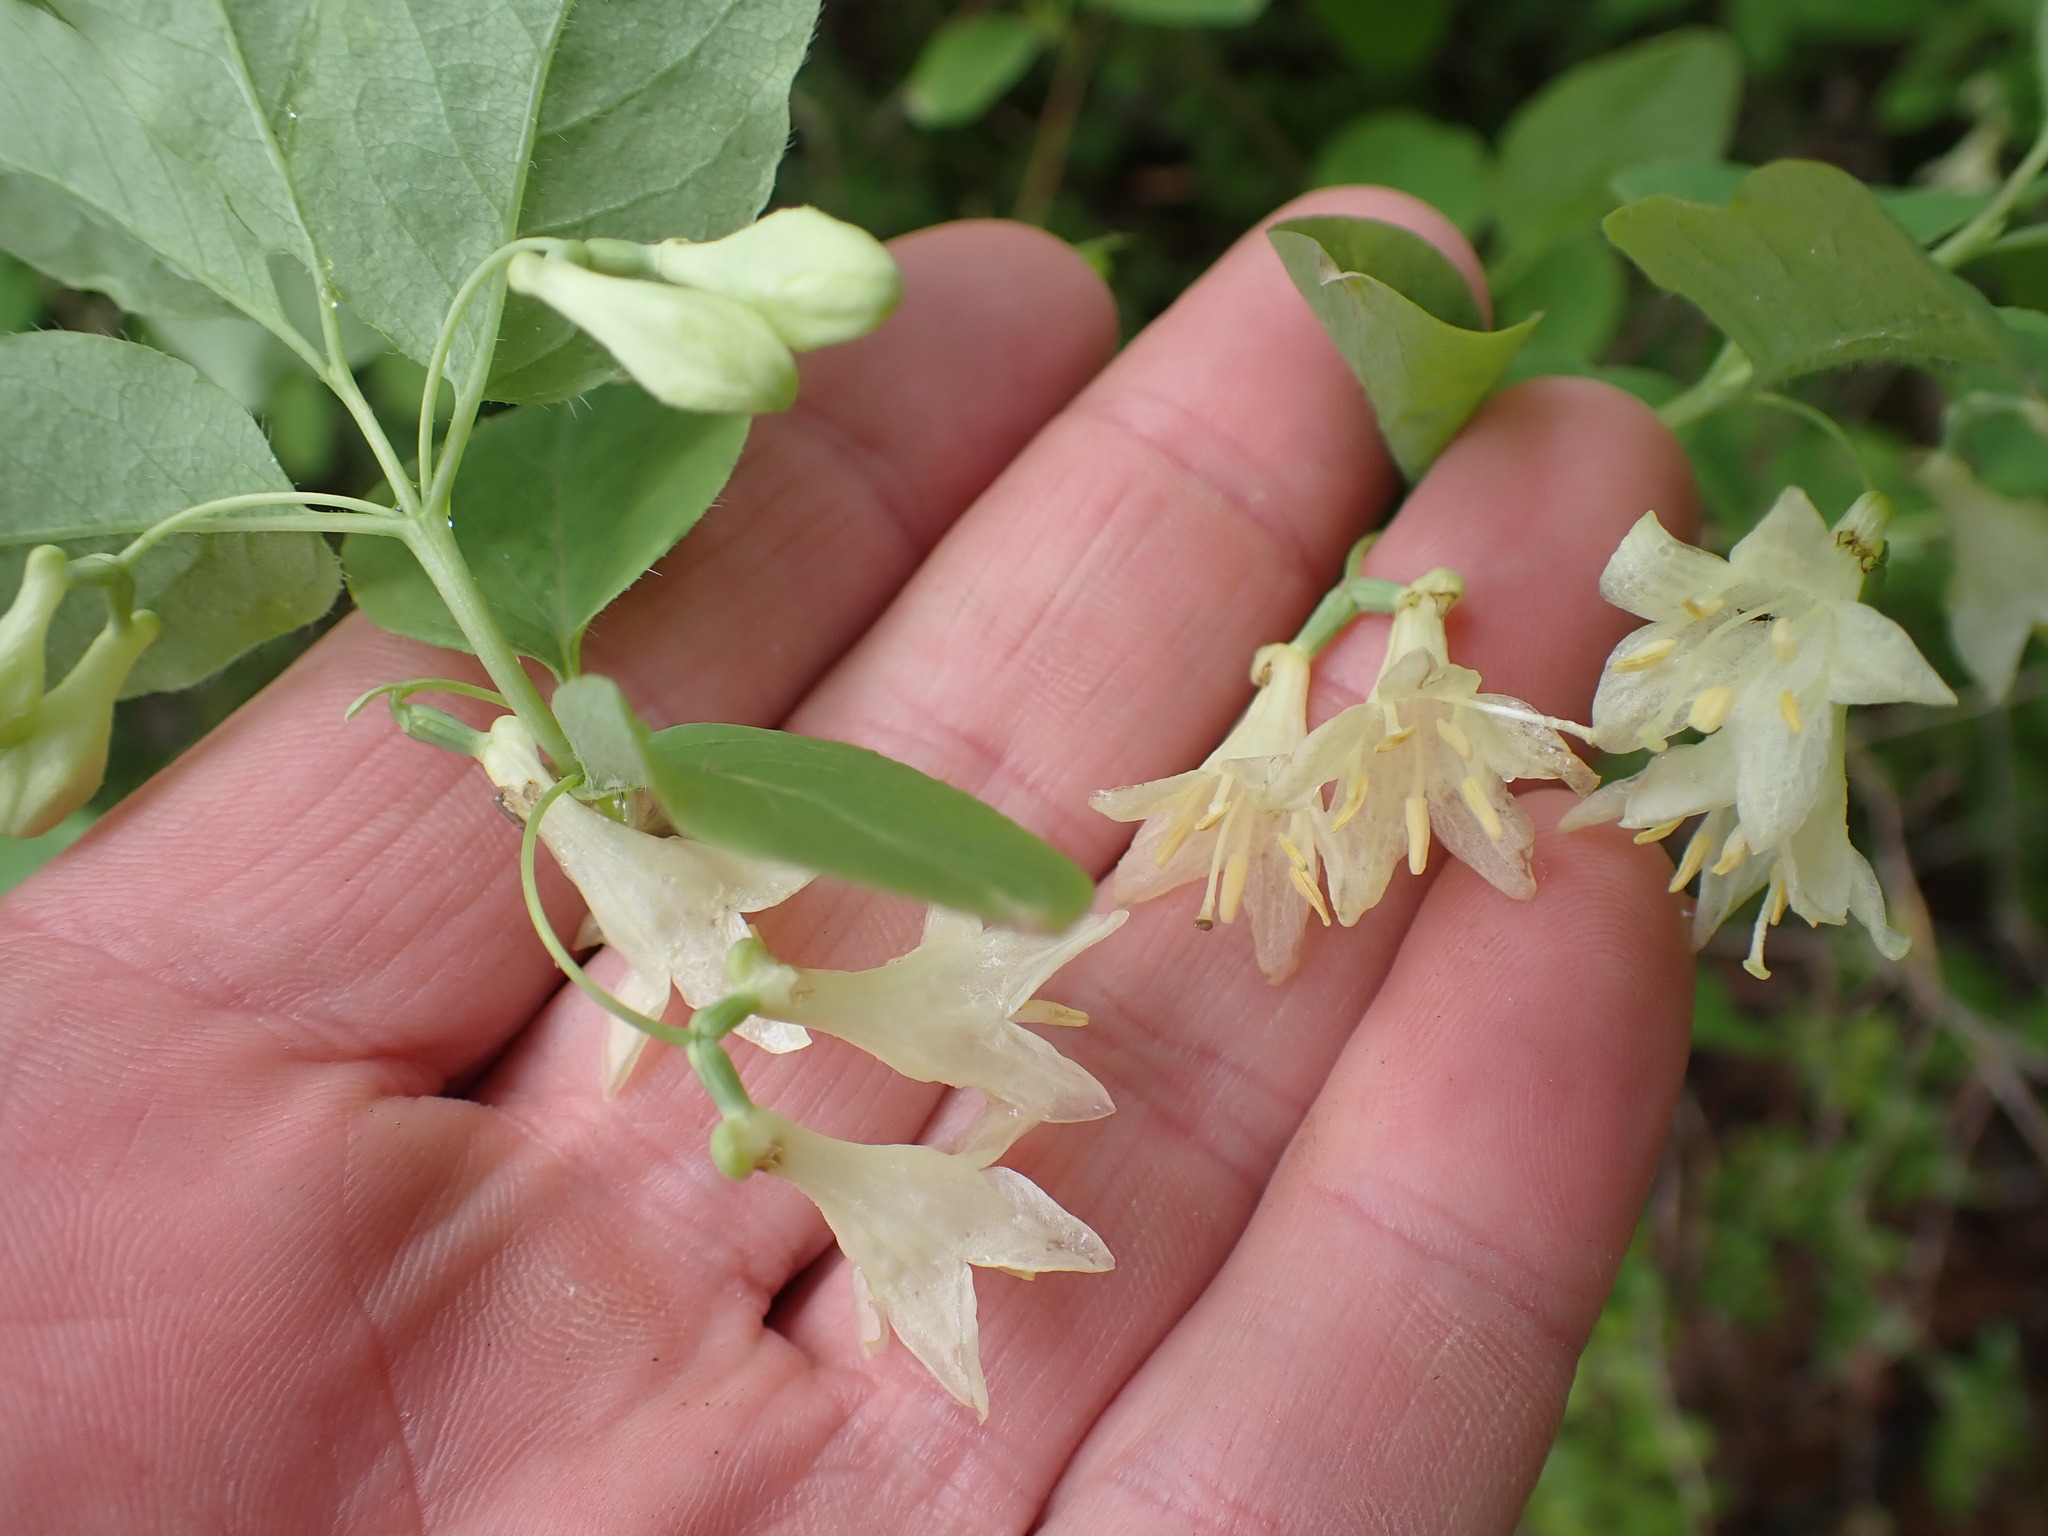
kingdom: Plantae
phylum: Tracheophyta
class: Magnoliopsida
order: Dipsacales
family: Caprifoliaceae
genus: Lonicera
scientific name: Lonicera utahensis
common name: Utah honeysuckle
